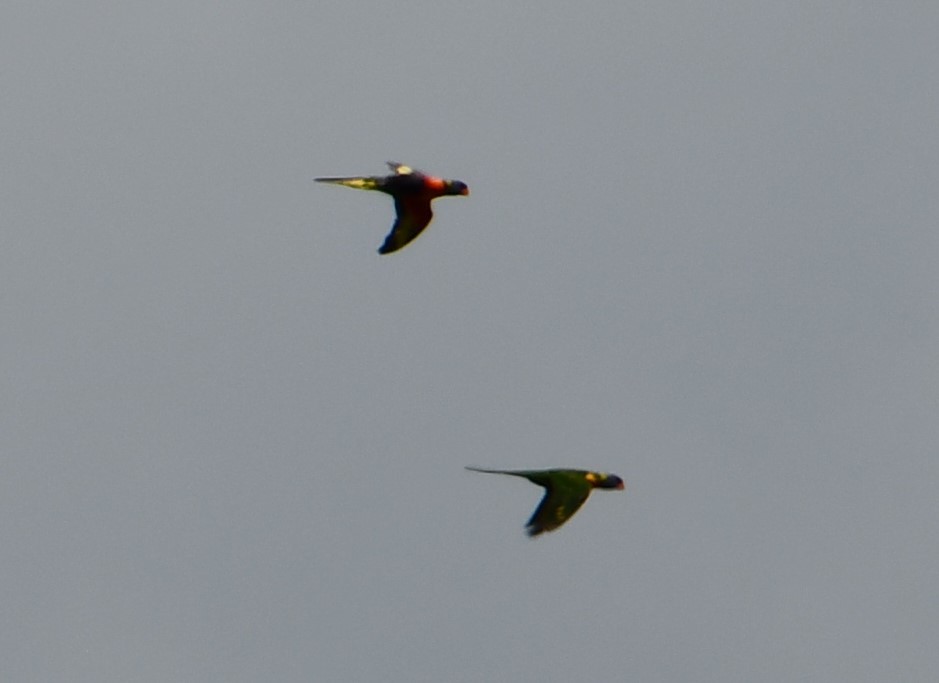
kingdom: Animalia
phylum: Chordata
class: Aves
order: Psittaciformes
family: Psittacidae
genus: Trichoglossus
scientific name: Trichoglossus haematodus
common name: Coconut lorikeet
